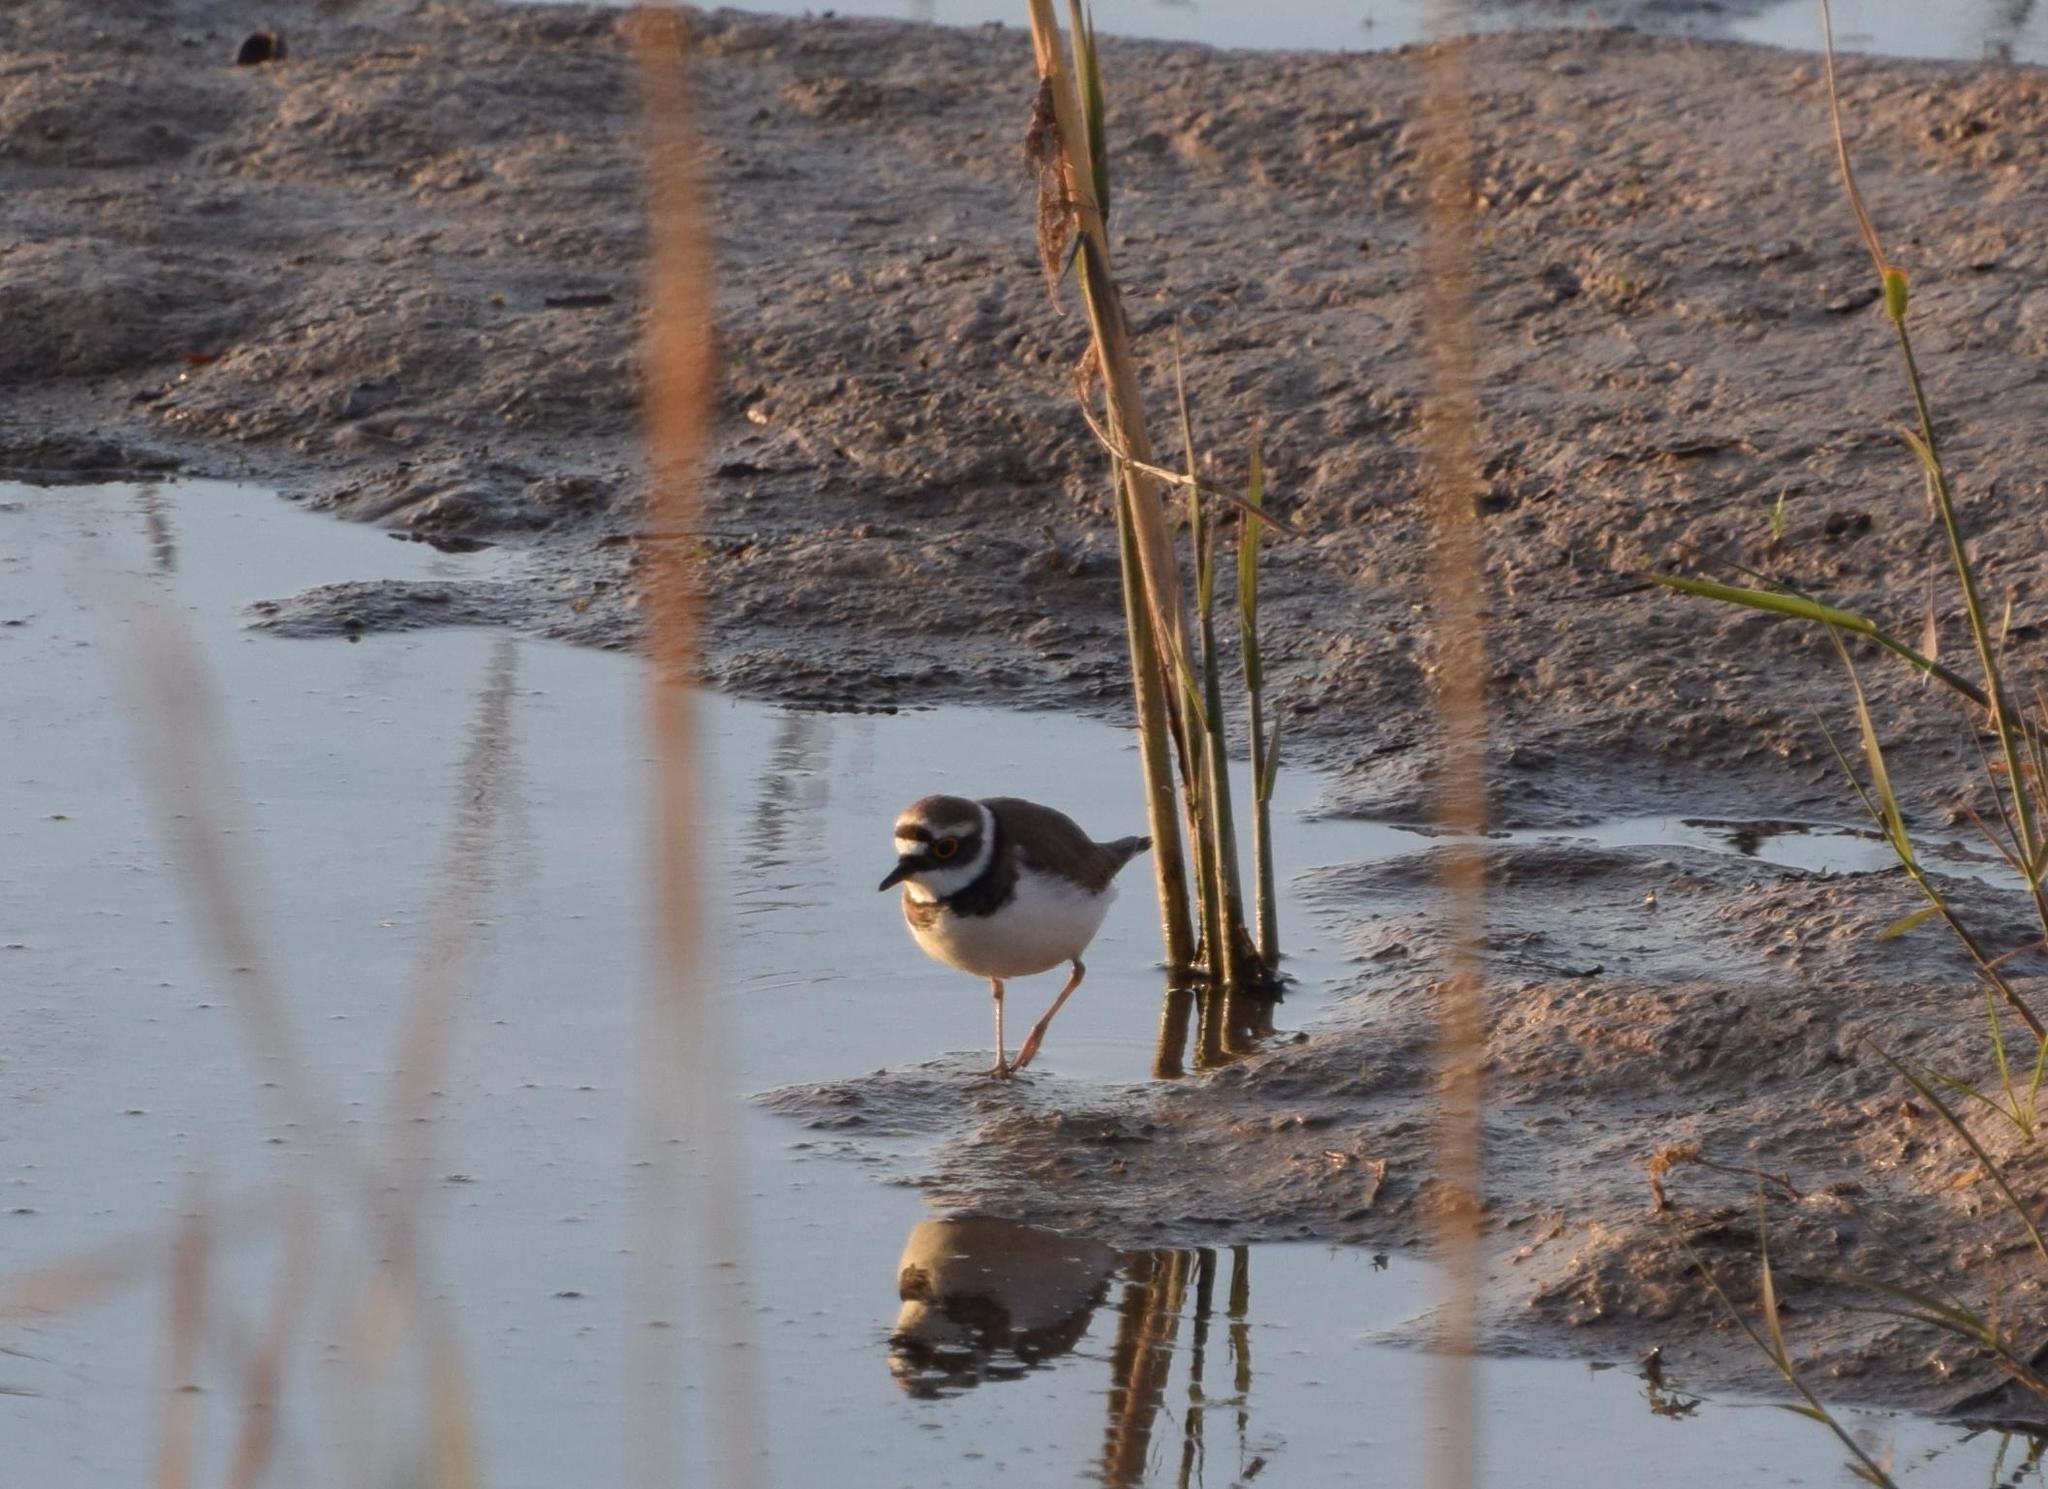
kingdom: Animalia
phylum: Chordata
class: Aves
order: Charadriiformes
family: Charadriidae
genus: Charadrius
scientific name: Charadrius dubius
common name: Little ringed plover
